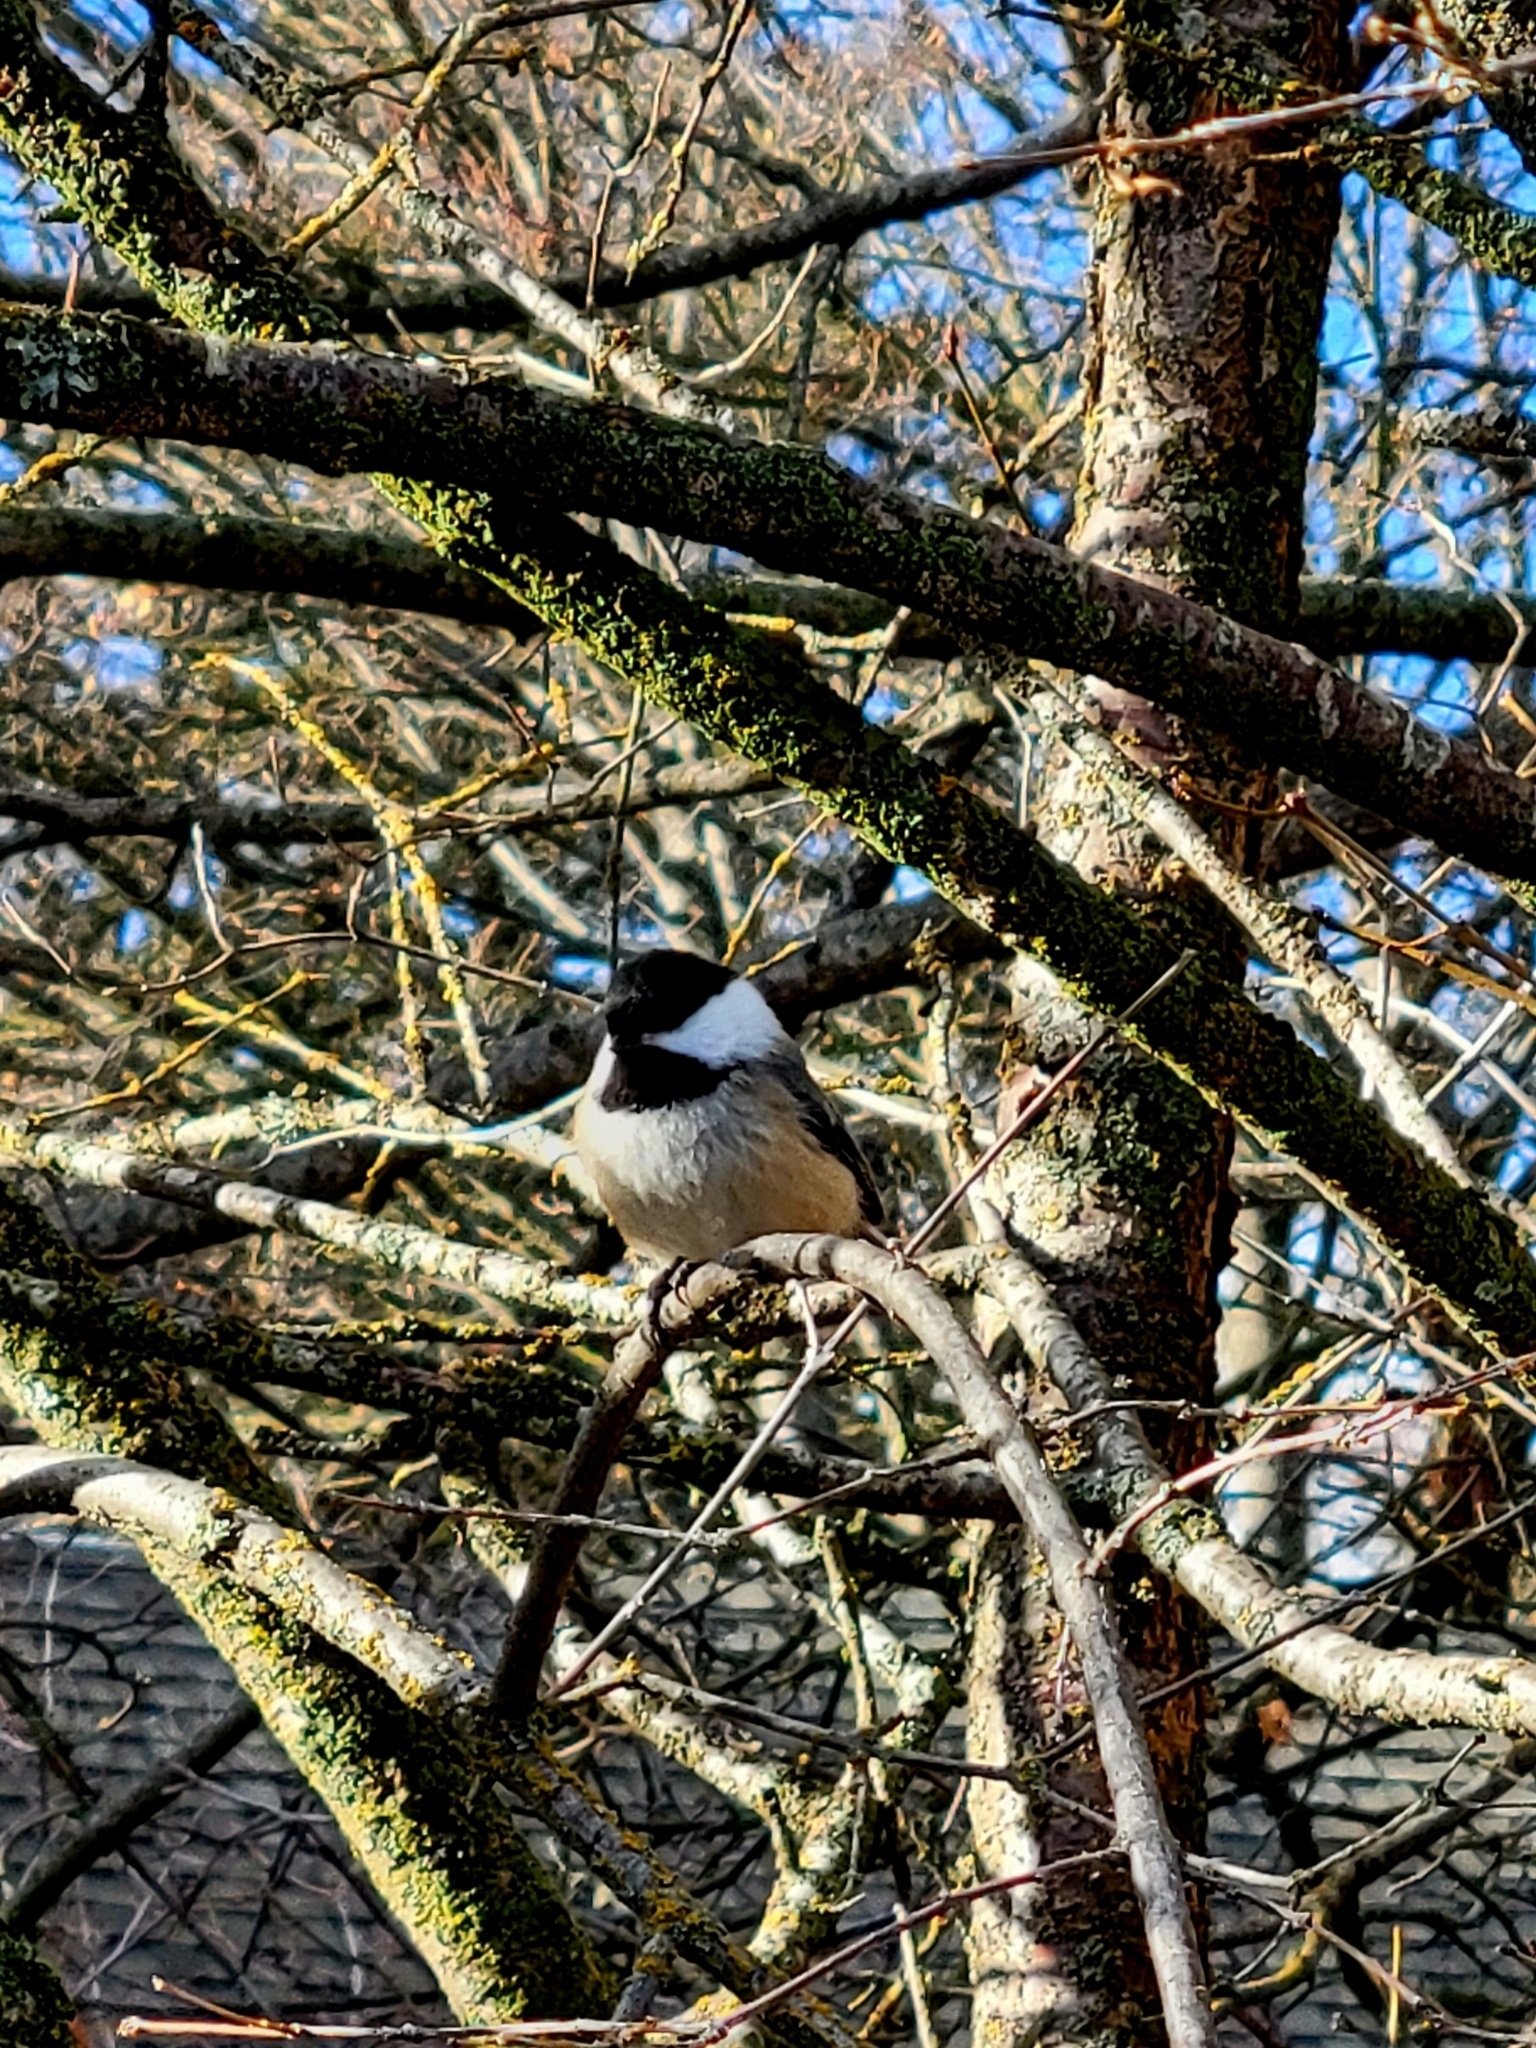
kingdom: Animalia
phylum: Chordata
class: Aves
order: Passeriformes
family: Paridae
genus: Poecile
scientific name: Poecile atricapillus
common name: Black-capped chickadee
